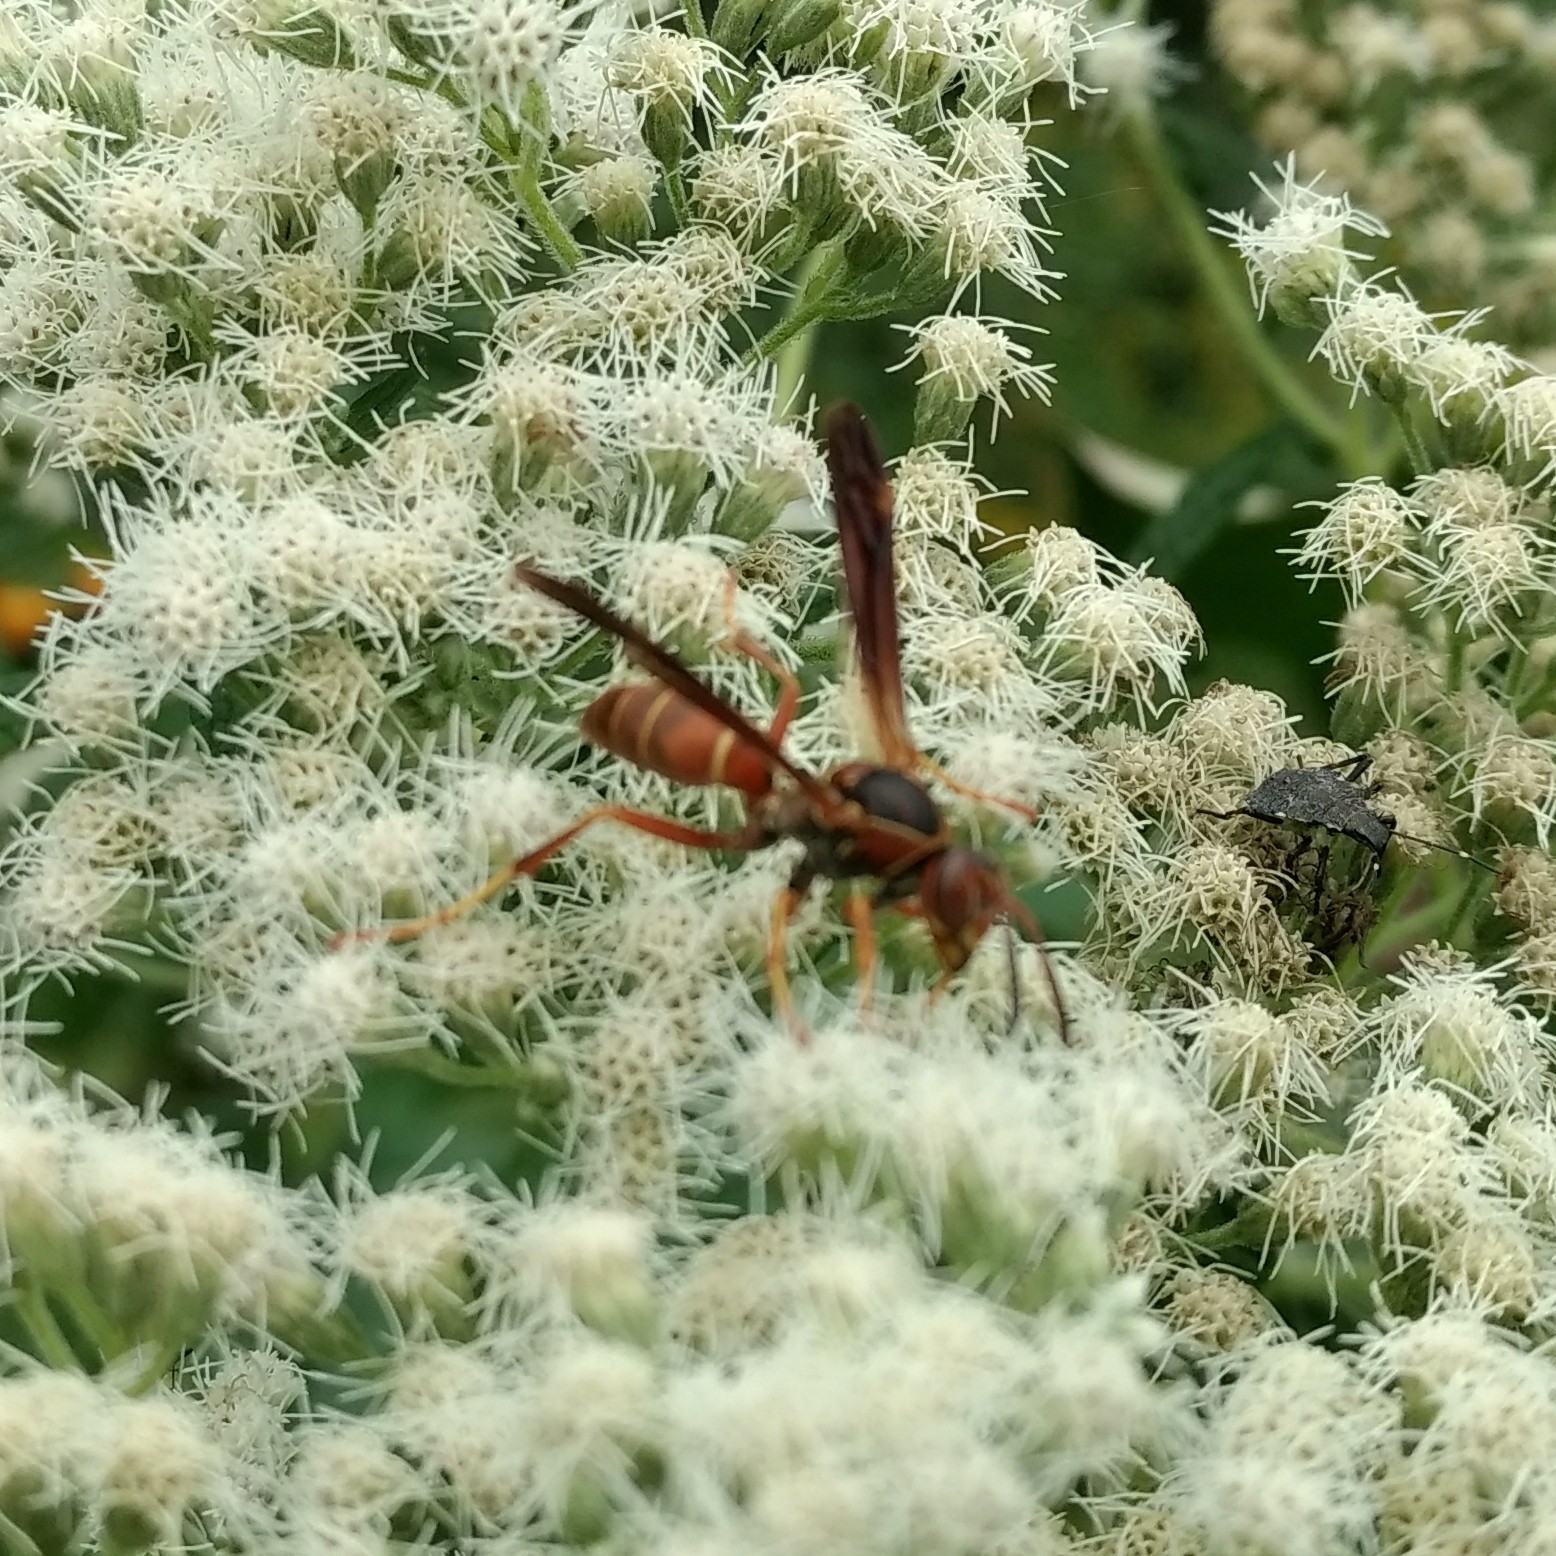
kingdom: Animalia
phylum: Arthropoda
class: Insecta
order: Hymenoptera
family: Eumenidae
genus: Polistes
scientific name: Polistes fuscatus
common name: Dark paper wasp
